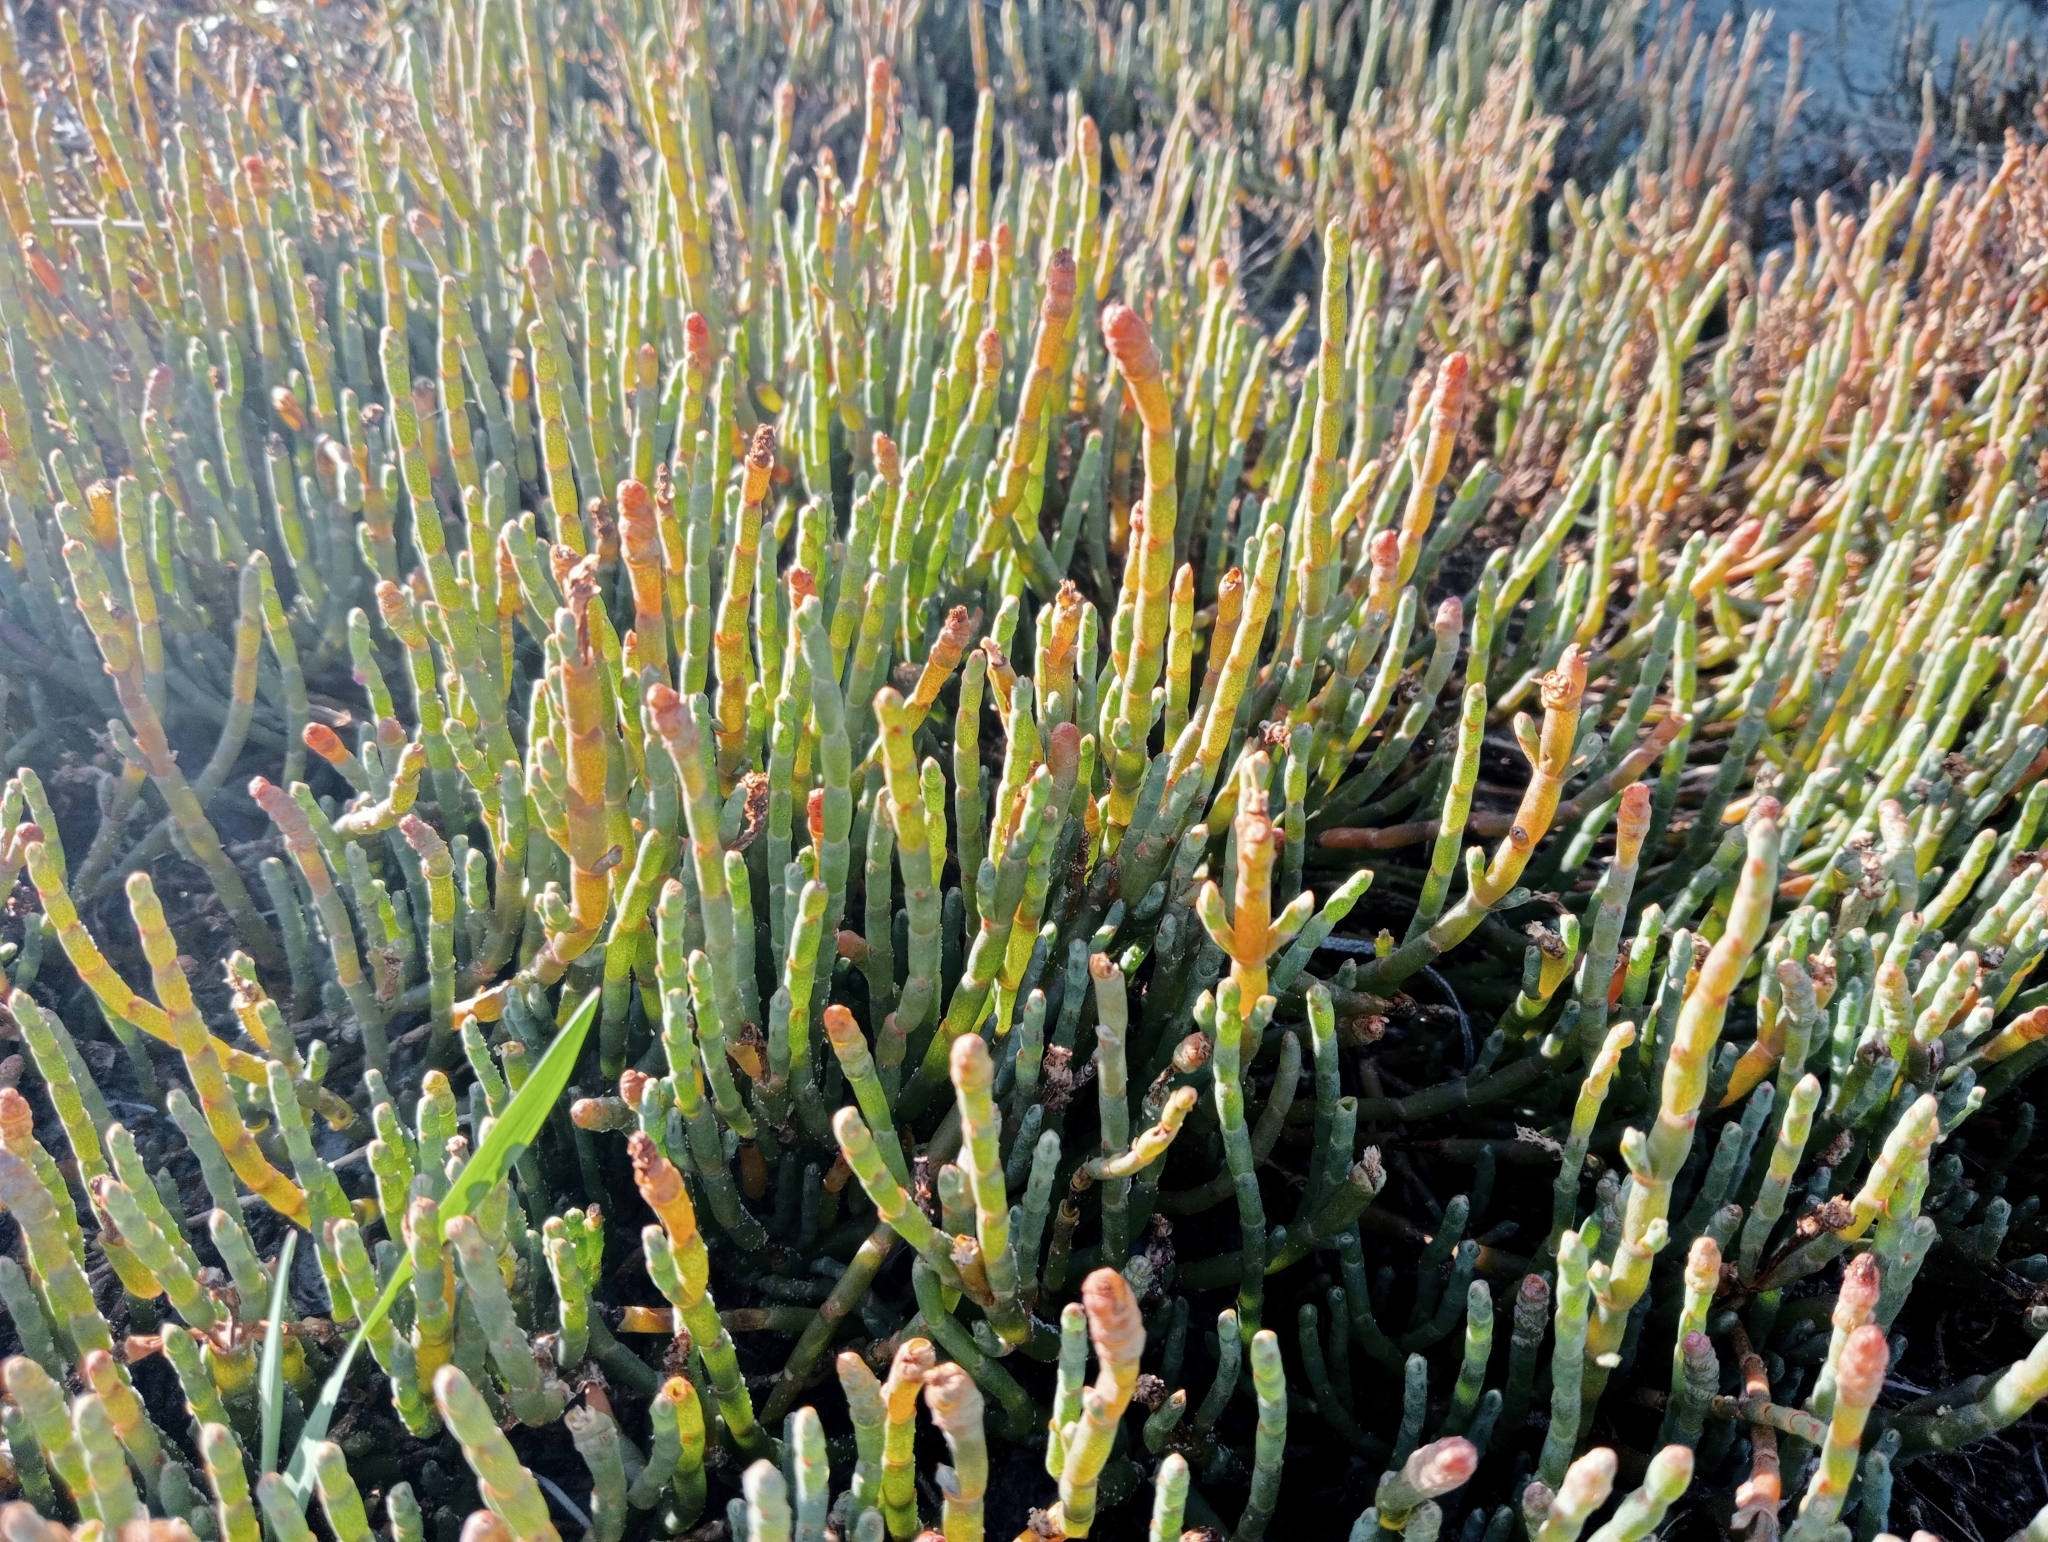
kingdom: Plantae
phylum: Tracheophyta
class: Magnoliopsida
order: Caryophyllales
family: Amaranthaceae
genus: Salicornia
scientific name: Salicornia quinqueflora
